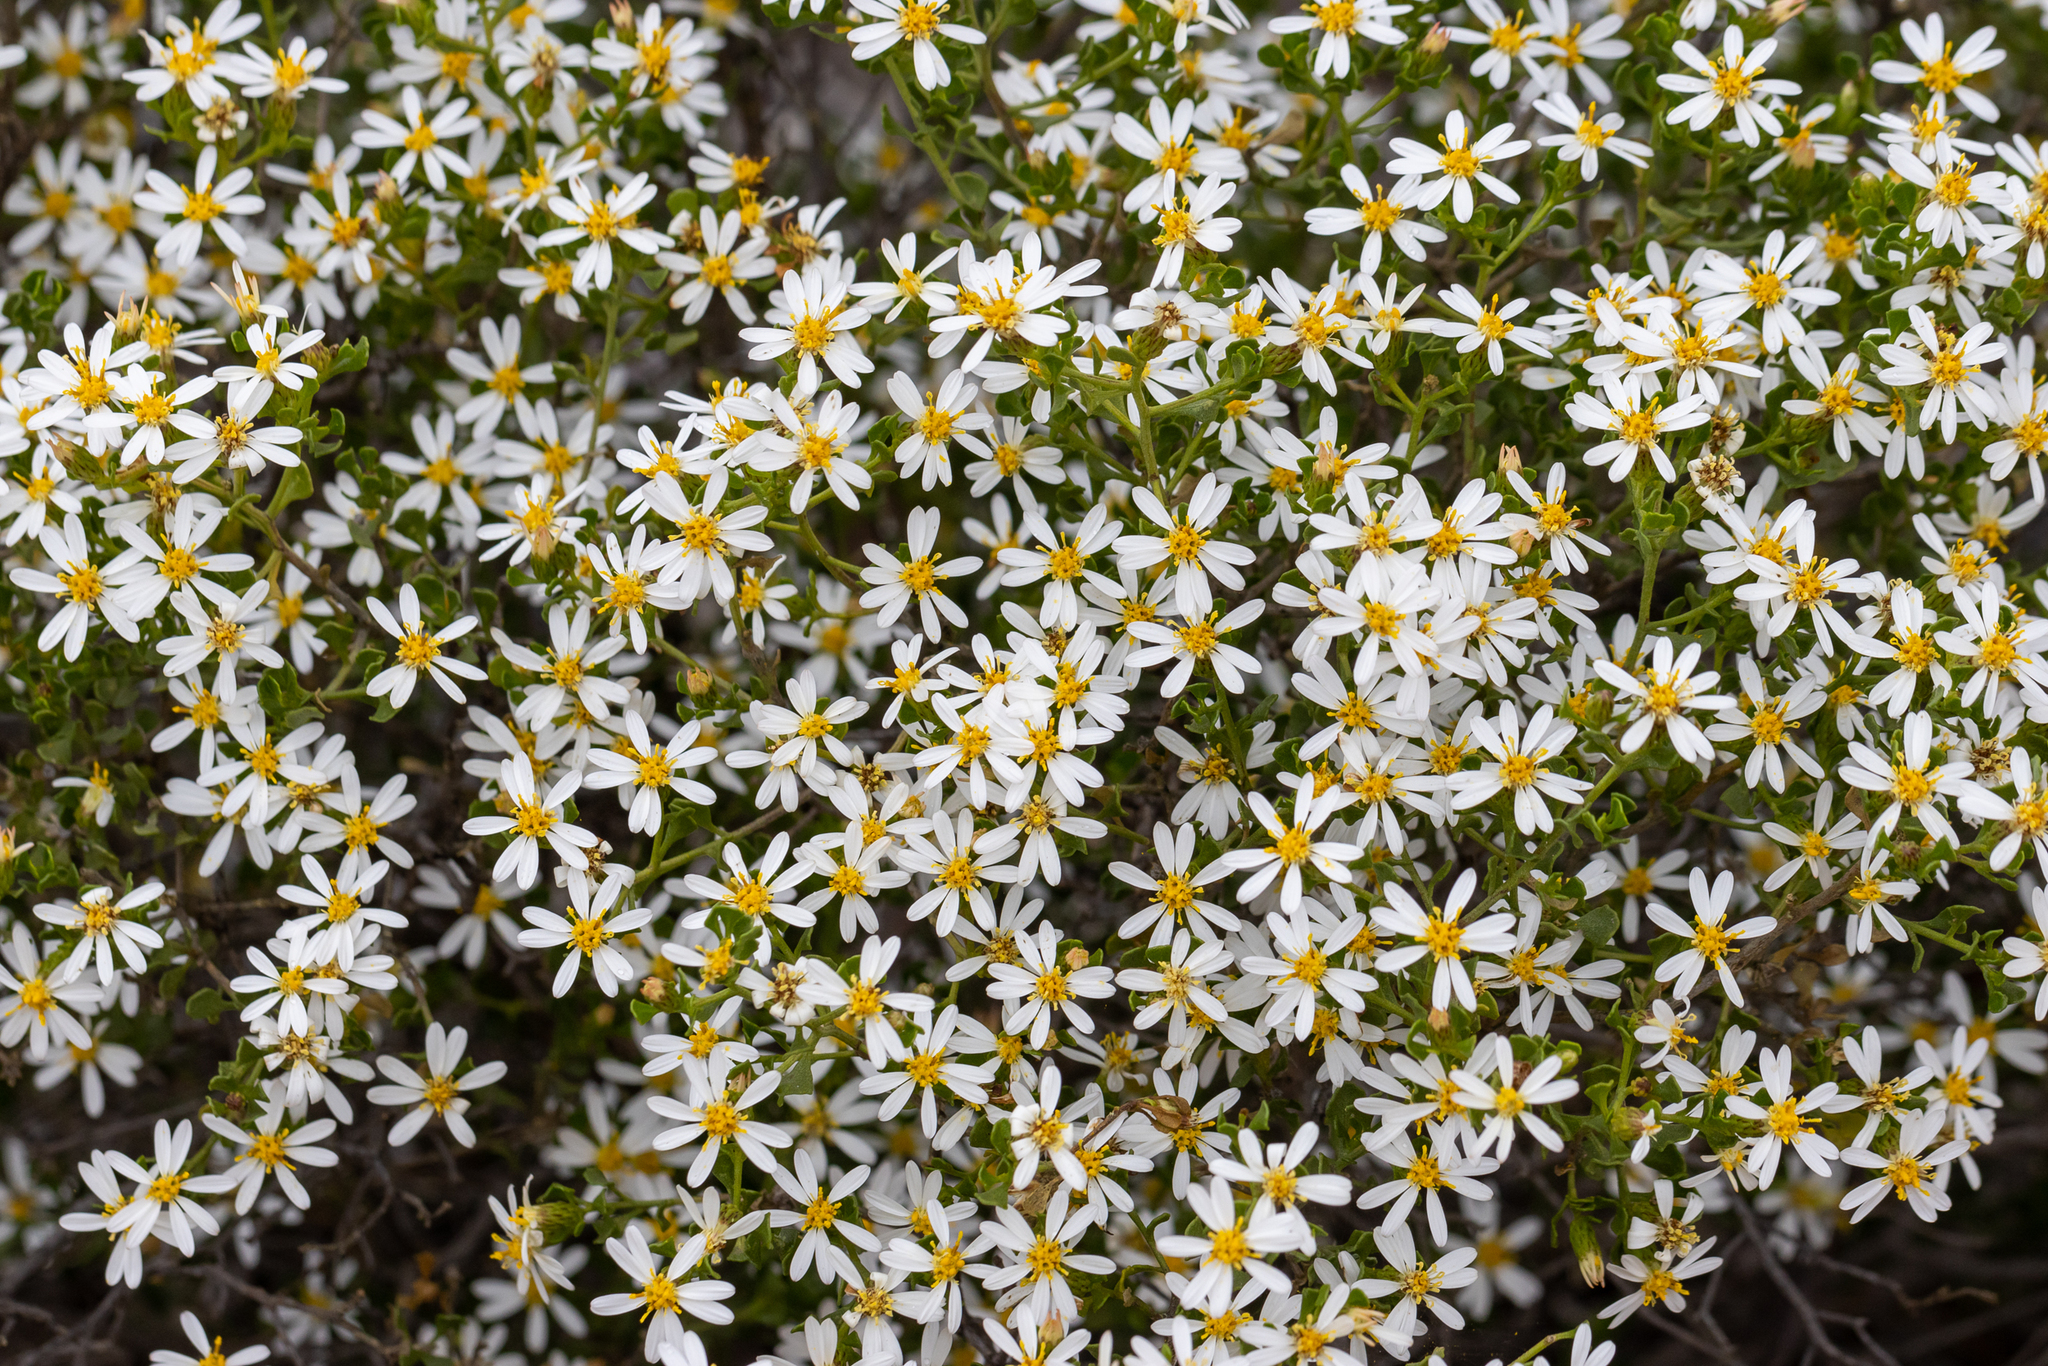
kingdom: Plantae
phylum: Tracheophyta
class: Magnoliopsida
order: Asterales
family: Asteraceae
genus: Walsholaria
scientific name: Walsholaria muelleri
